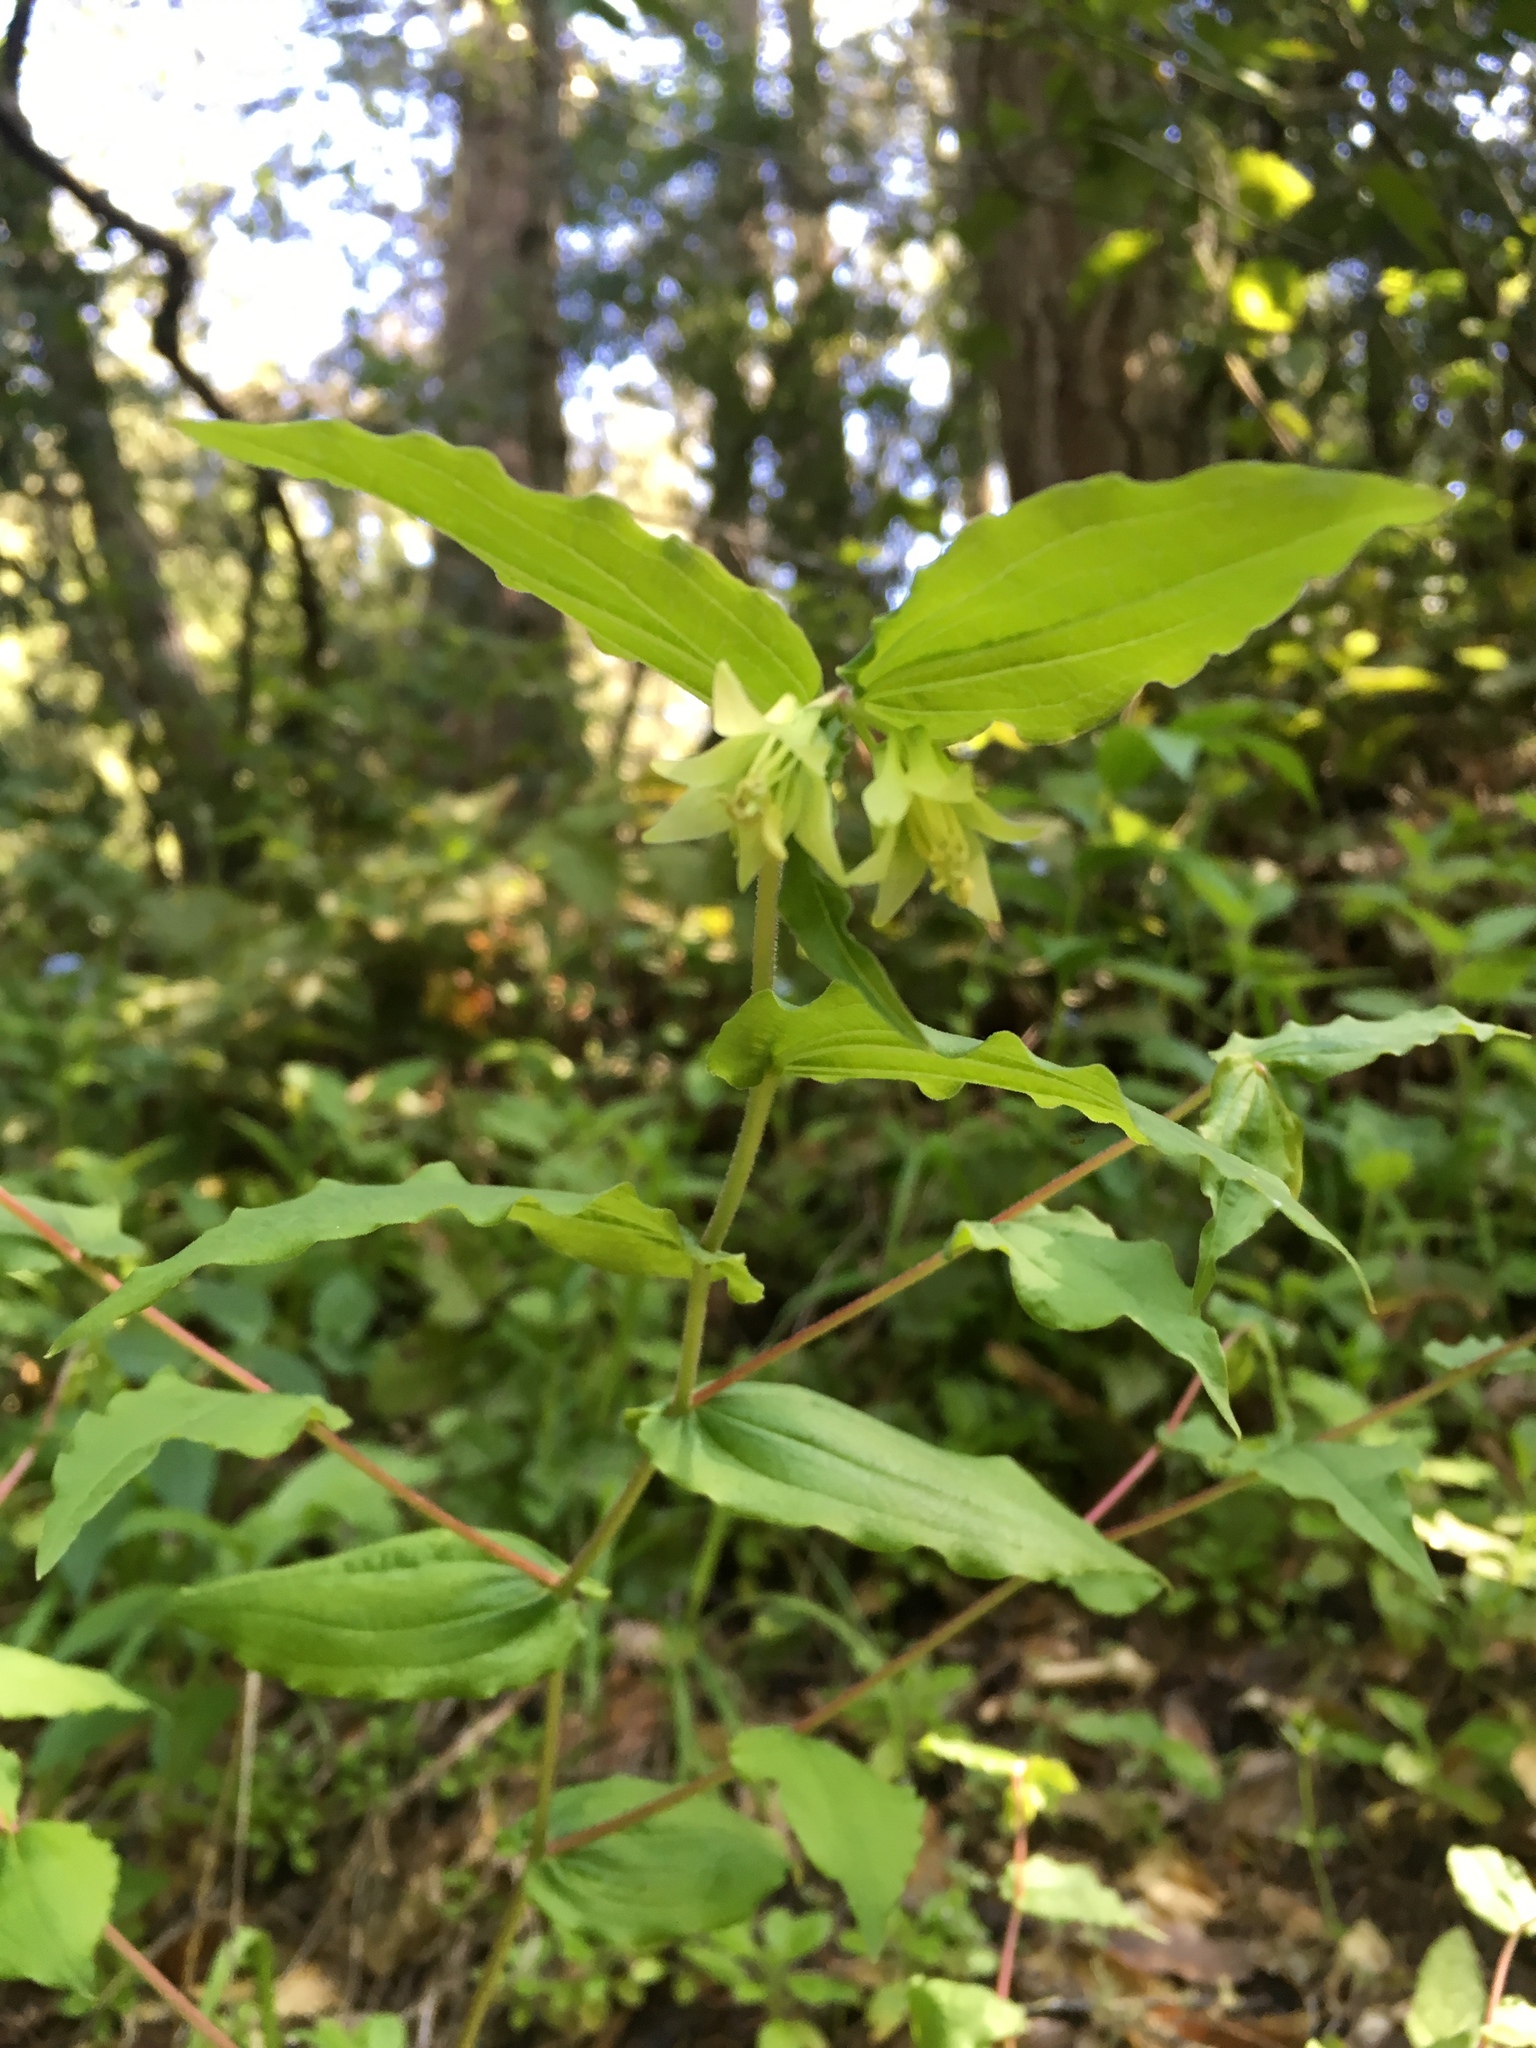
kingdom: Plantae
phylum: Tracheophyta
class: Liliopsida
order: Liliales
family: Liliaceae
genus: Prosartes
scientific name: Prosartes hookeri
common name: Fairy-bells
